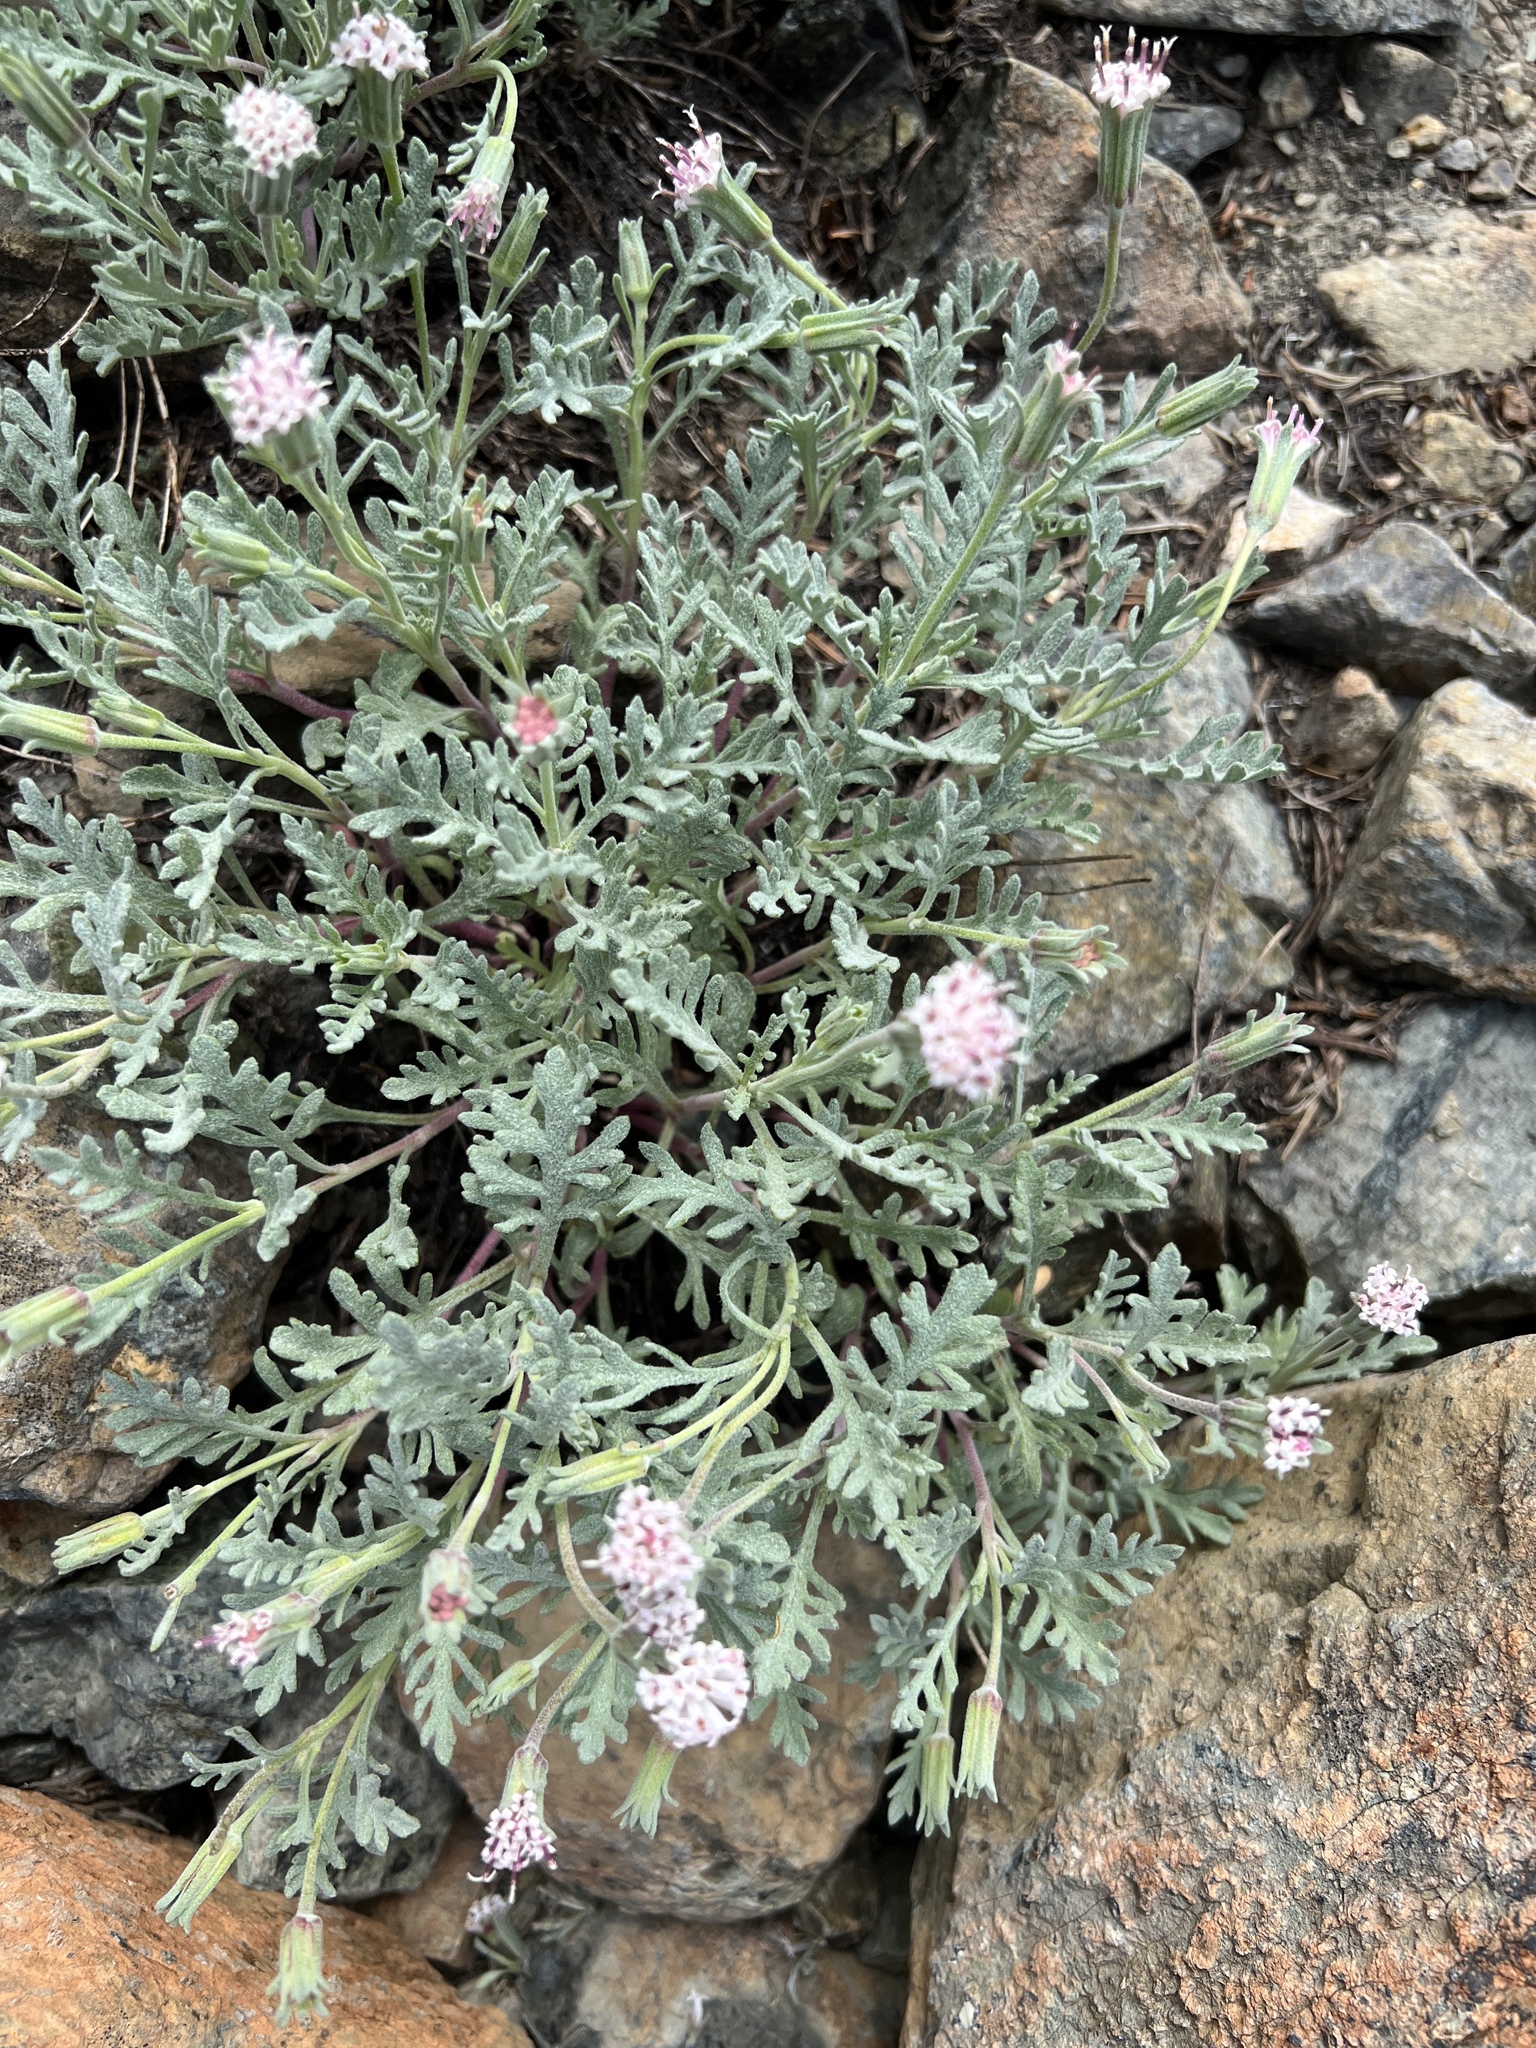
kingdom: Plantae
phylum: Tracheophyta
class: Magnoliopsida
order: Asterales
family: Asteraceae
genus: Chaenactis
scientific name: Chaenactis thompsonii
